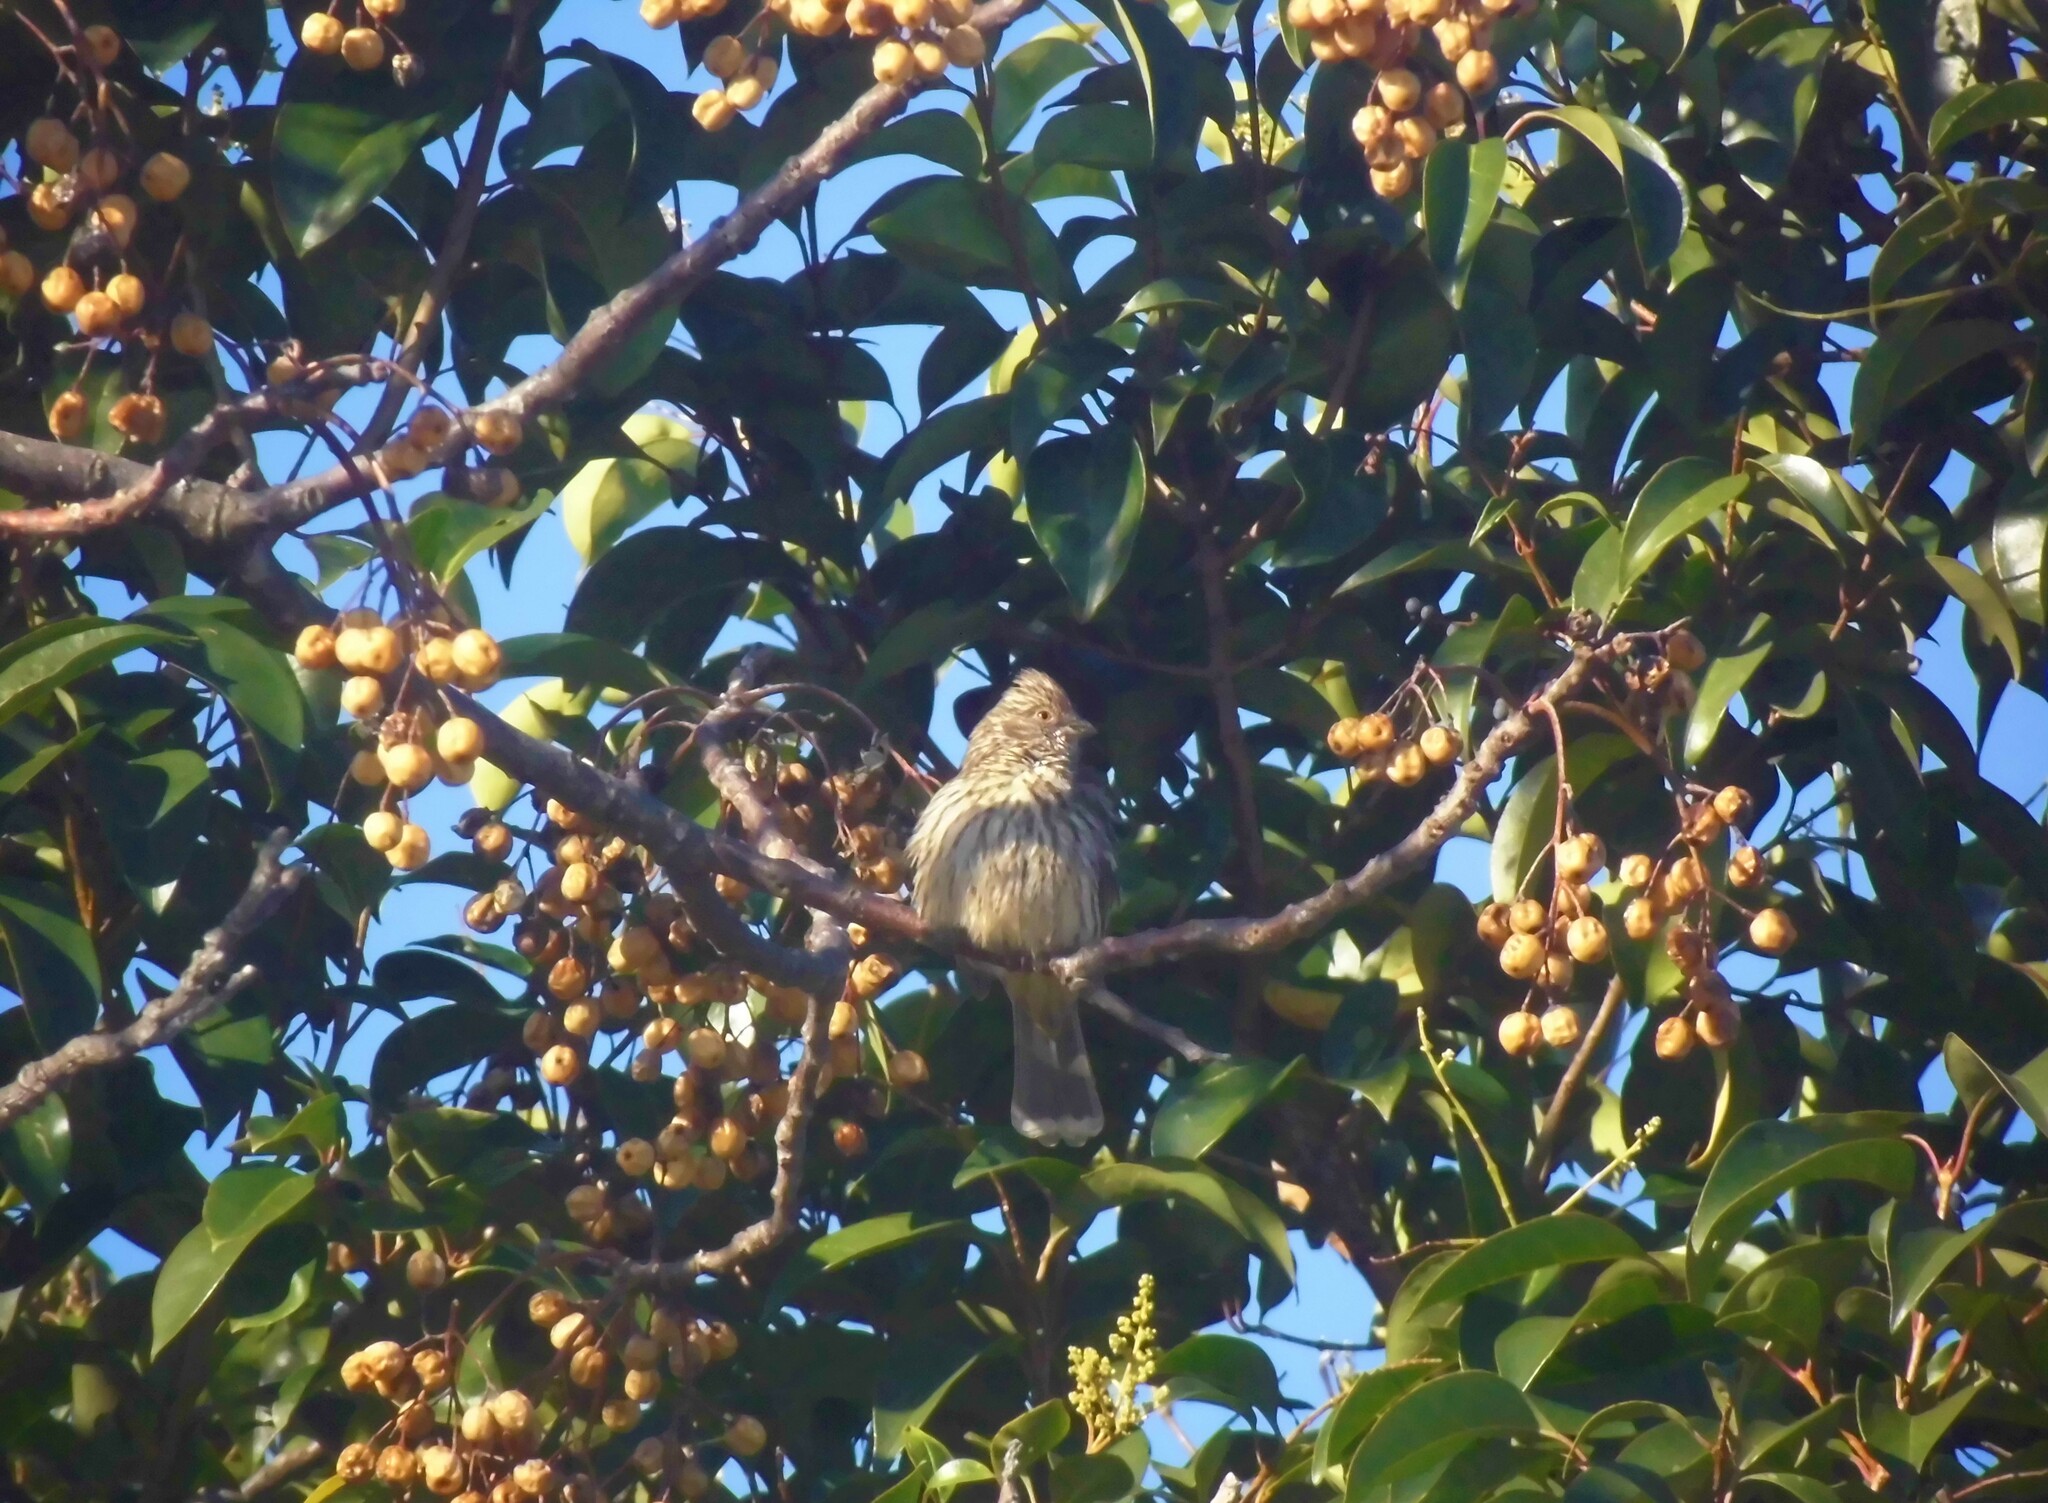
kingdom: Animalia
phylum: Chordata
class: Aves
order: Passeriformes
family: Cotingidae
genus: Phytotoma
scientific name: Phytotoma rutila
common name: White-tipped plantcutter
